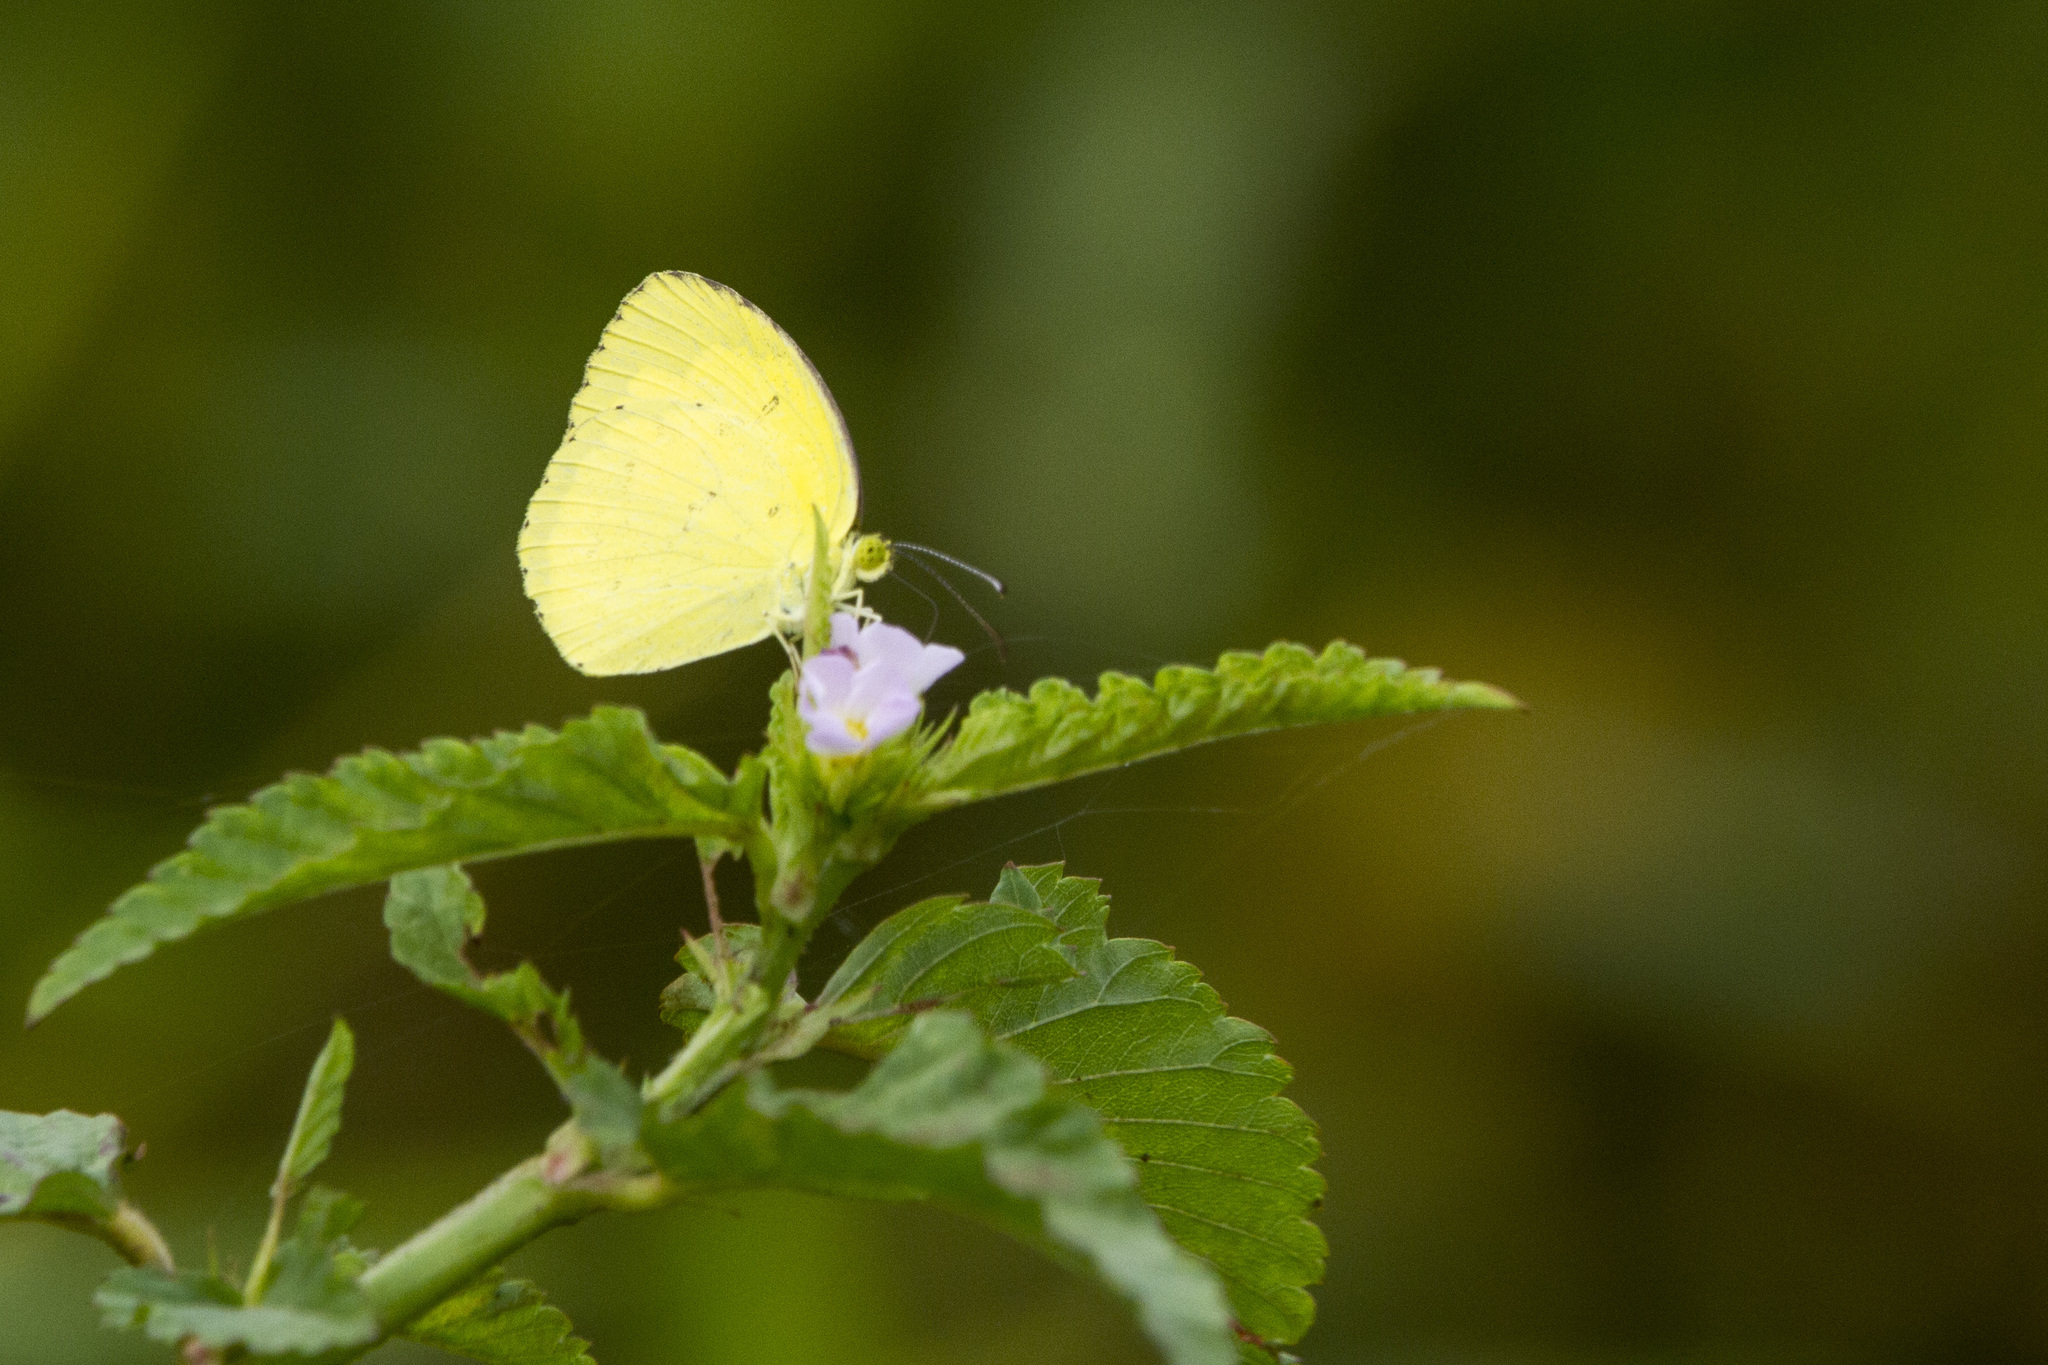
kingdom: Animalia
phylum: Arthropoda
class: Insecta
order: Lepidoptera
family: Pieridae
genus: Eurema
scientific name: Eurema hecabe
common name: Pale grass yellow
